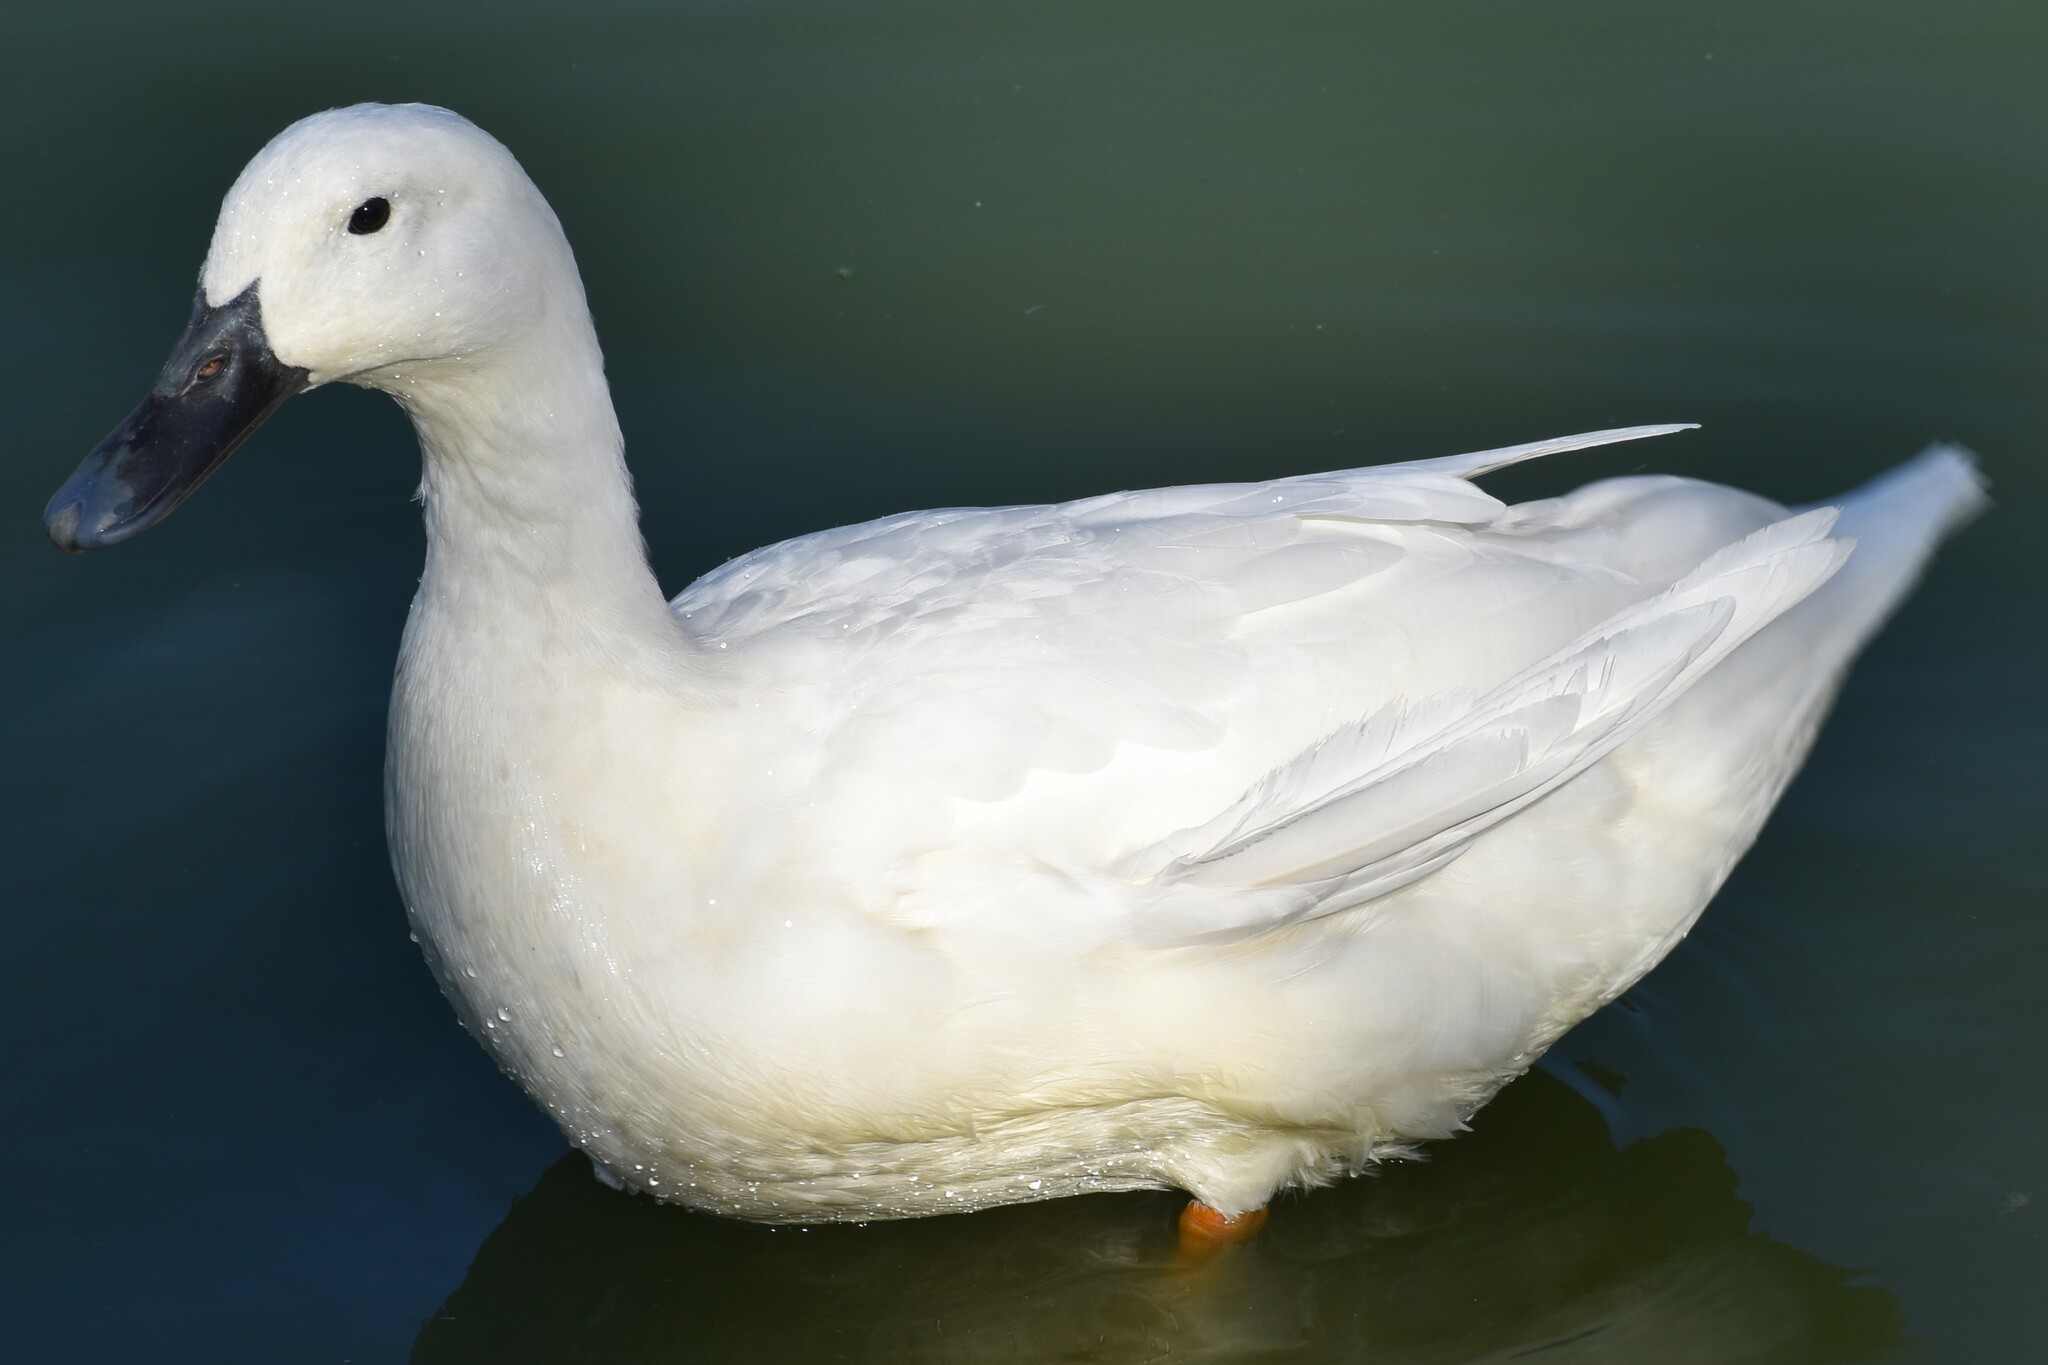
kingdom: Animalia
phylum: Chordata
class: Aves
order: Anseriformes
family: Anatidae
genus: Anas
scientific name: Anas platyrhynchos
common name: Mallard
